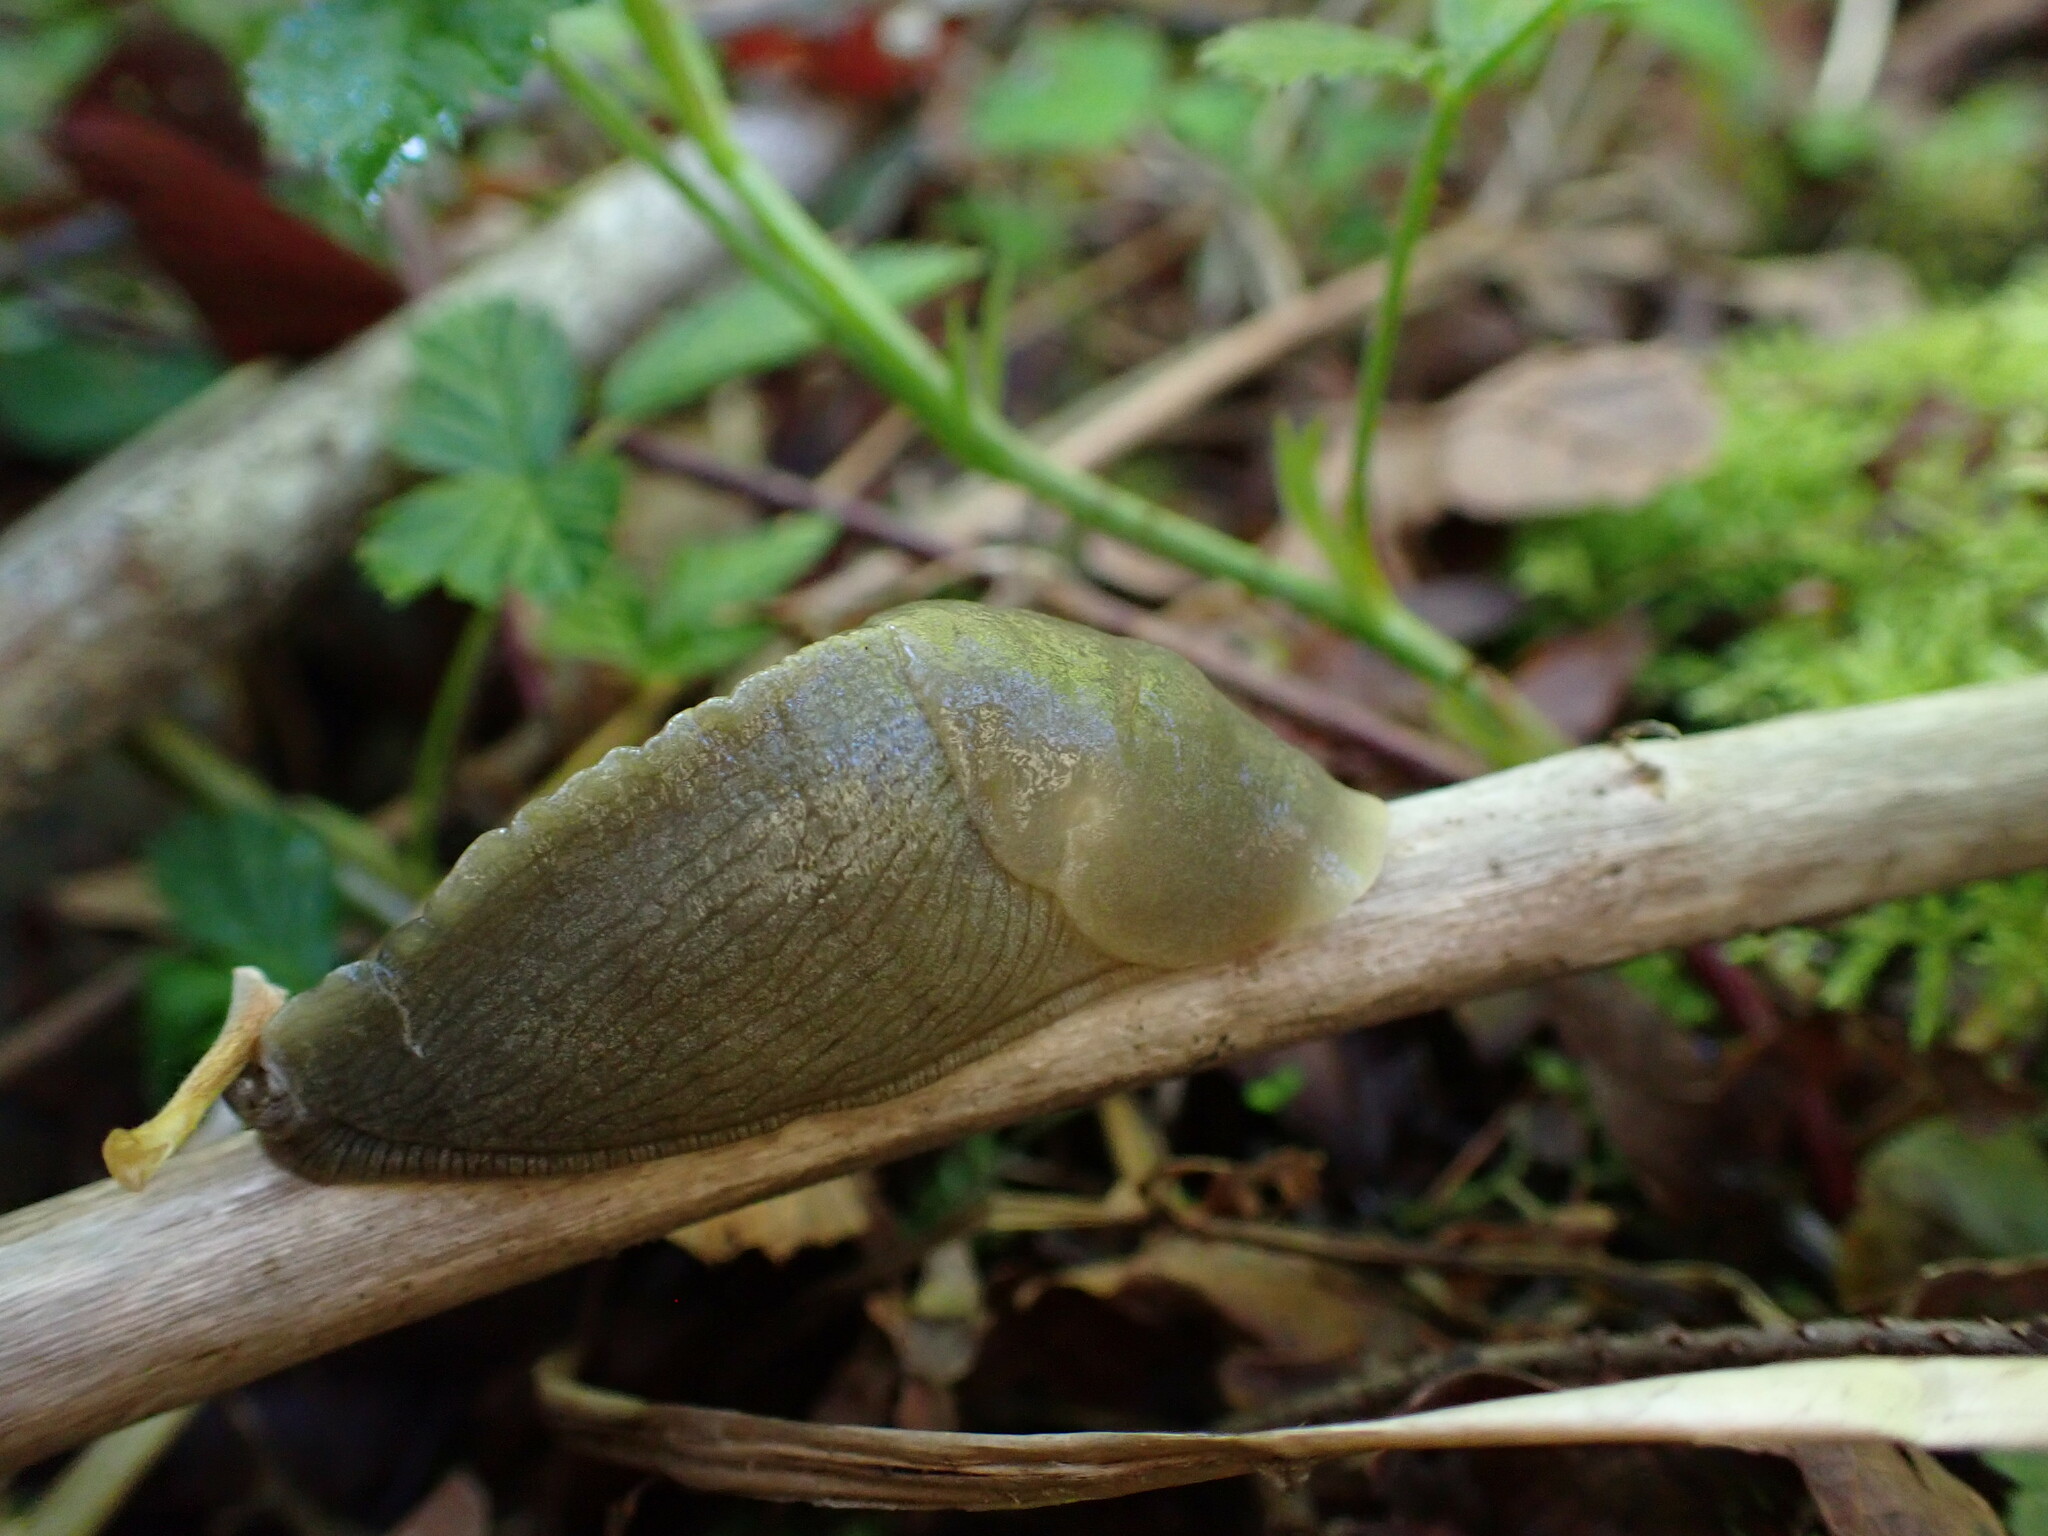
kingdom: Animalia
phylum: Mollusca
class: Gastropoda
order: Stylommatophora
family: Ariolimacidae
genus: Ariolimax
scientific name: Ariolimax columbianus
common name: Pacific banana slug
